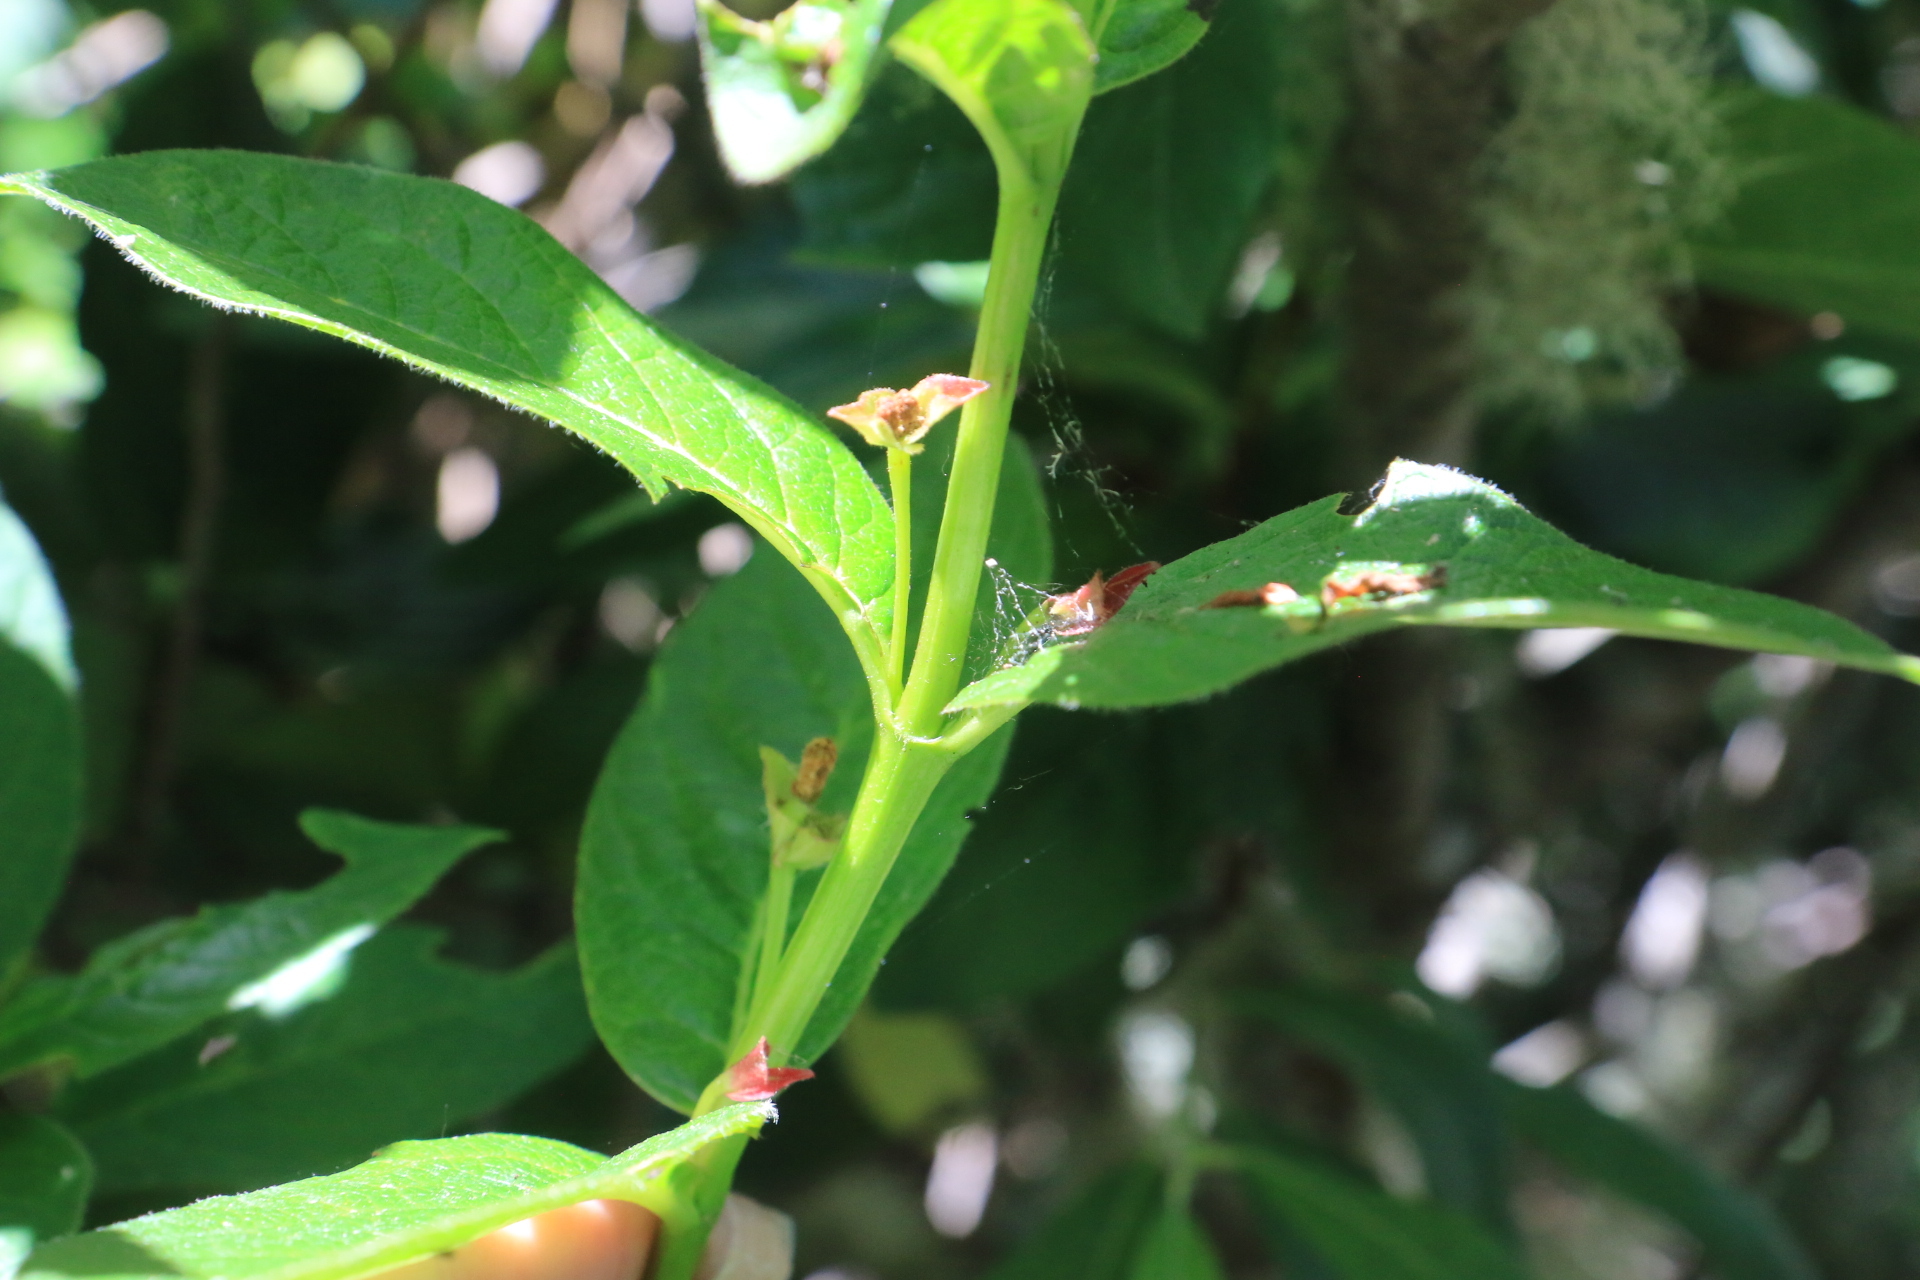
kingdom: Plantae
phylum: Tracheophyta
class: Magnoliopsida
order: Dipsacales
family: Caprifoliaceae
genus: Lonicera
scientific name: Lonicera involucrata
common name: Californian honeysuckle
